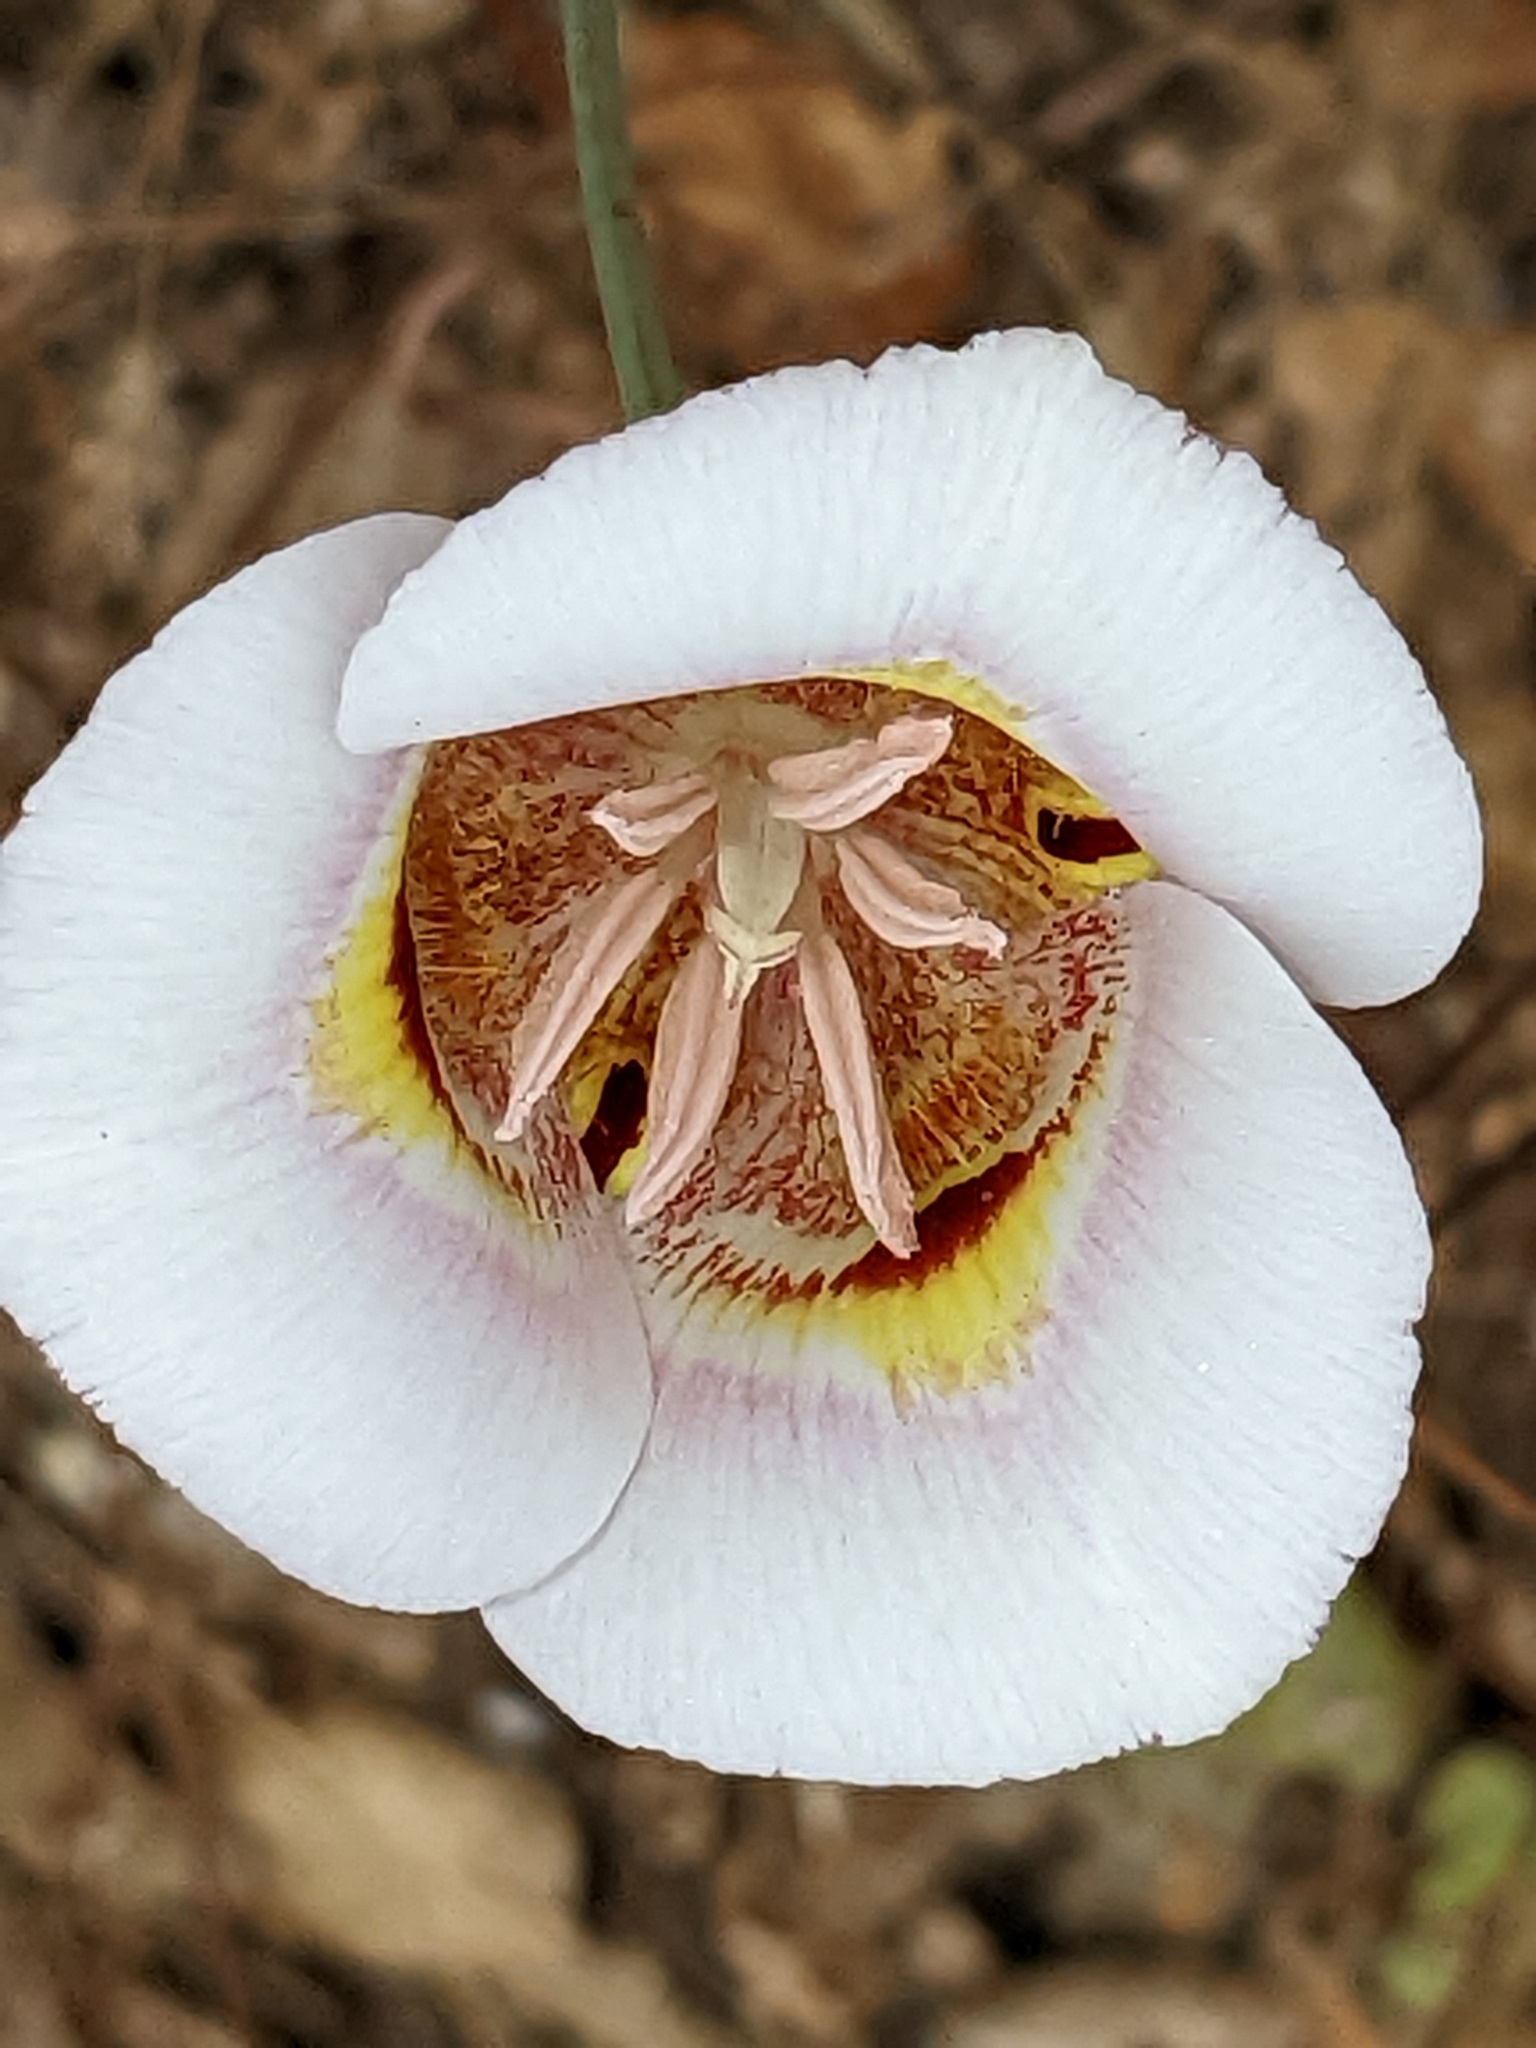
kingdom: Plantae
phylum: Tracheophyta
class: Liliopsida
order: Liliales
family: Liliaceae
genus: Calochortus
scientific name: Calochortus argillosus
